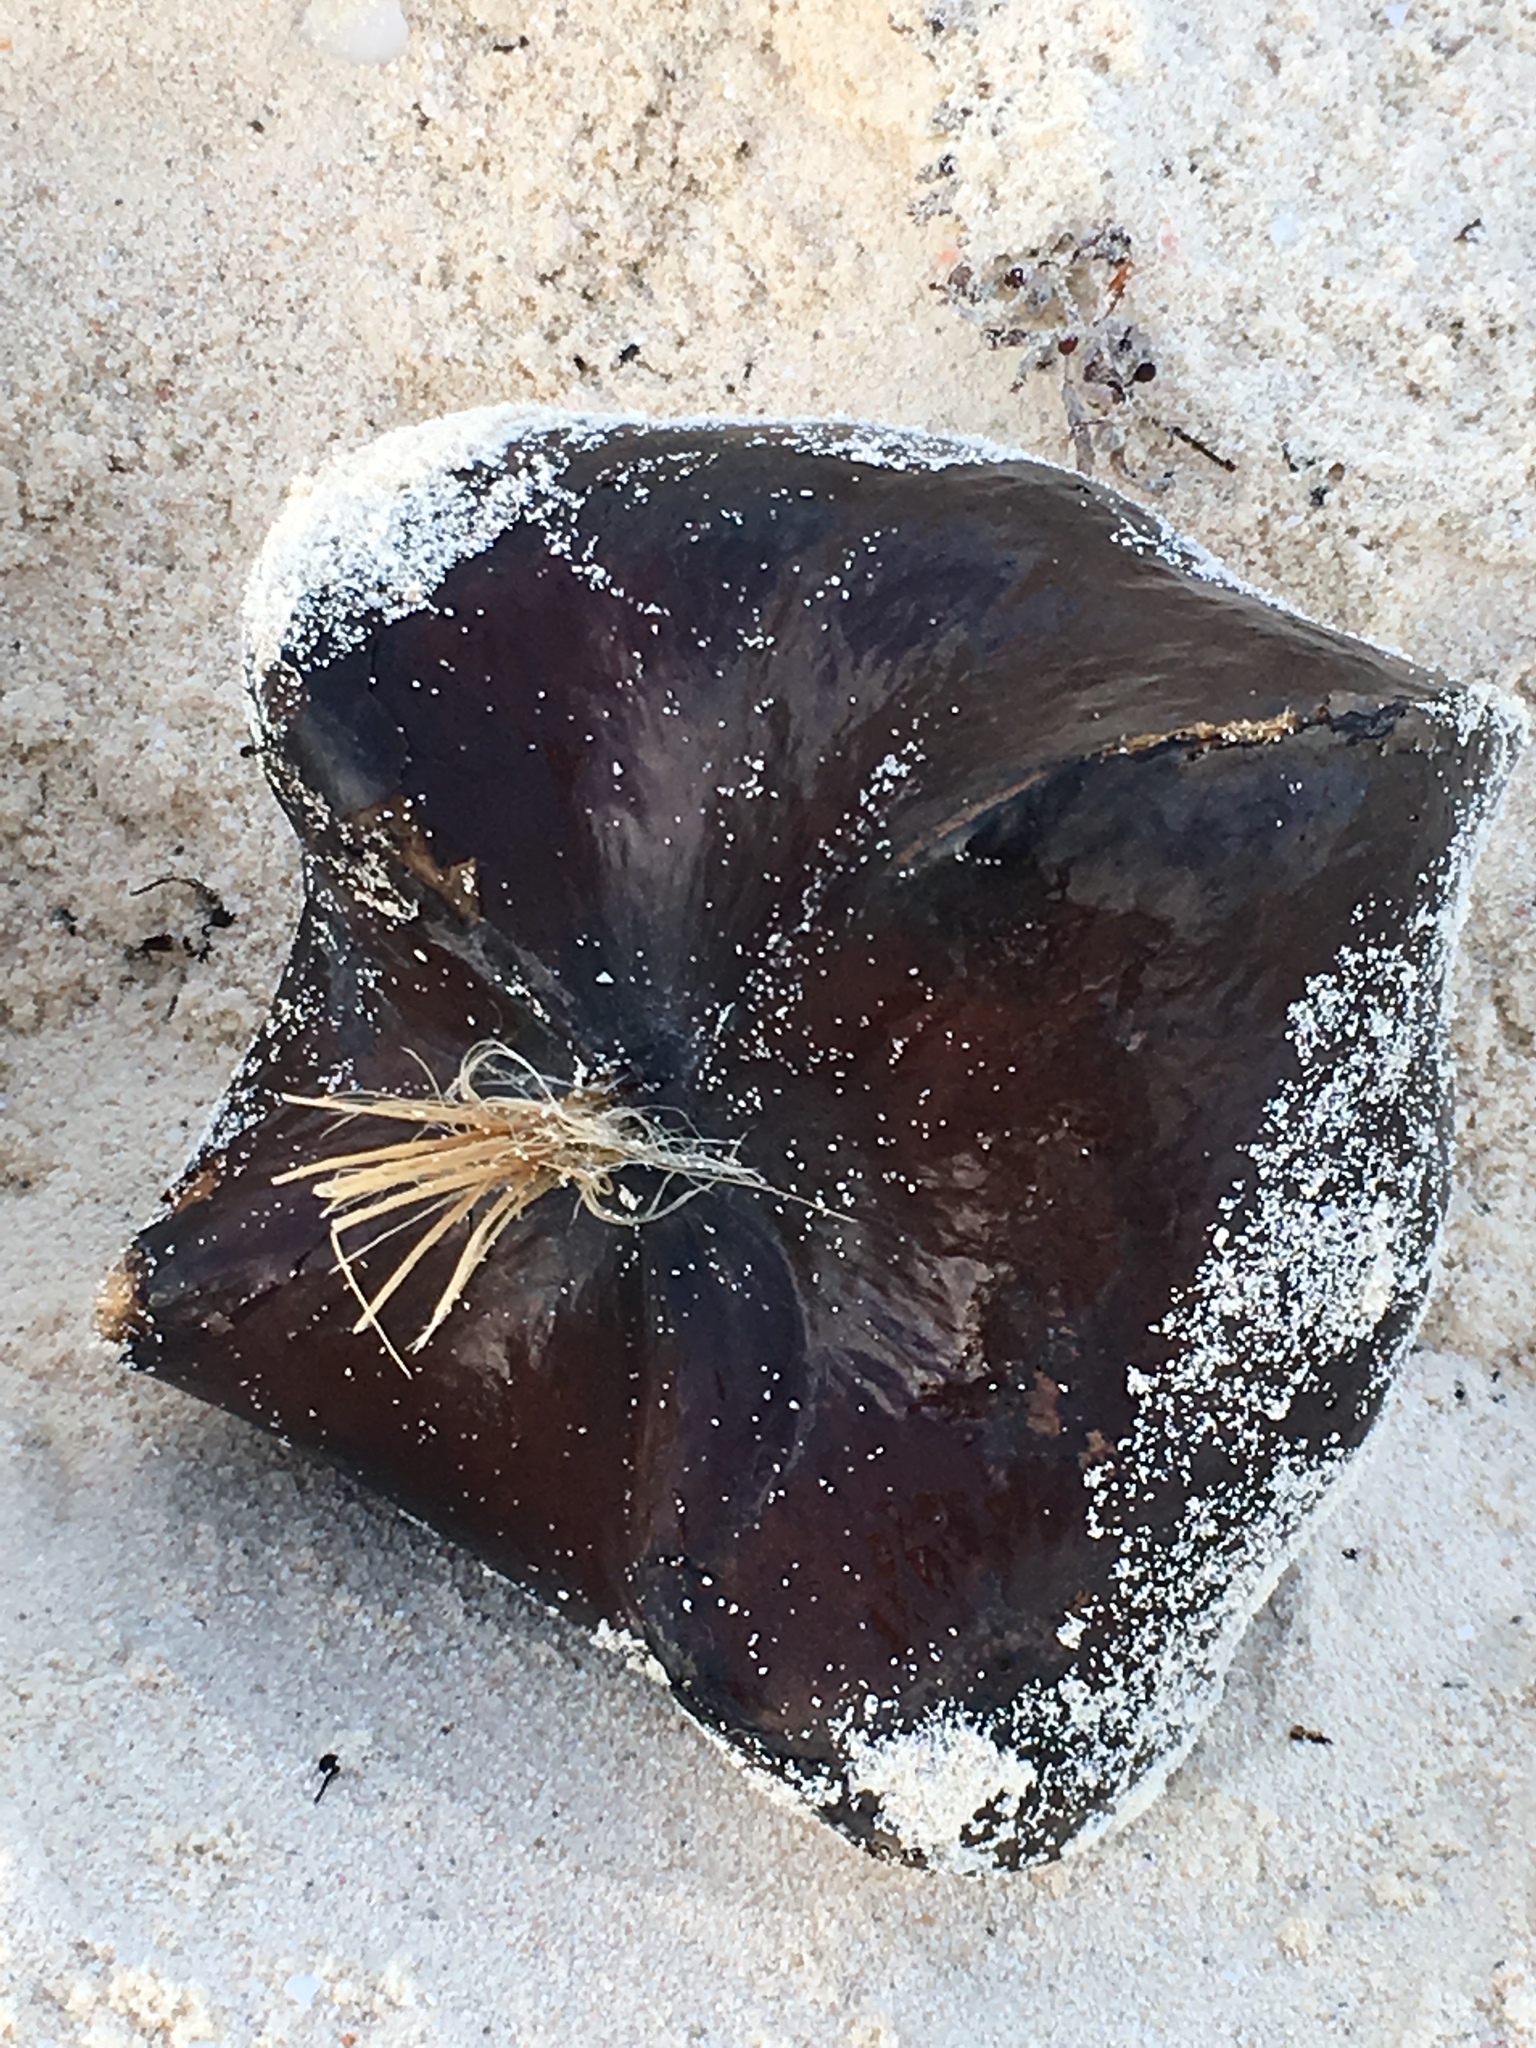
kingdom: Plantae
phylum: Tracheophyta
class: Magnoliopsida
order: Ericales
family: Lecythidaceae
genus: Barringtonia
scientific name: Barringtonia asiatica
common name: Mango-pine
